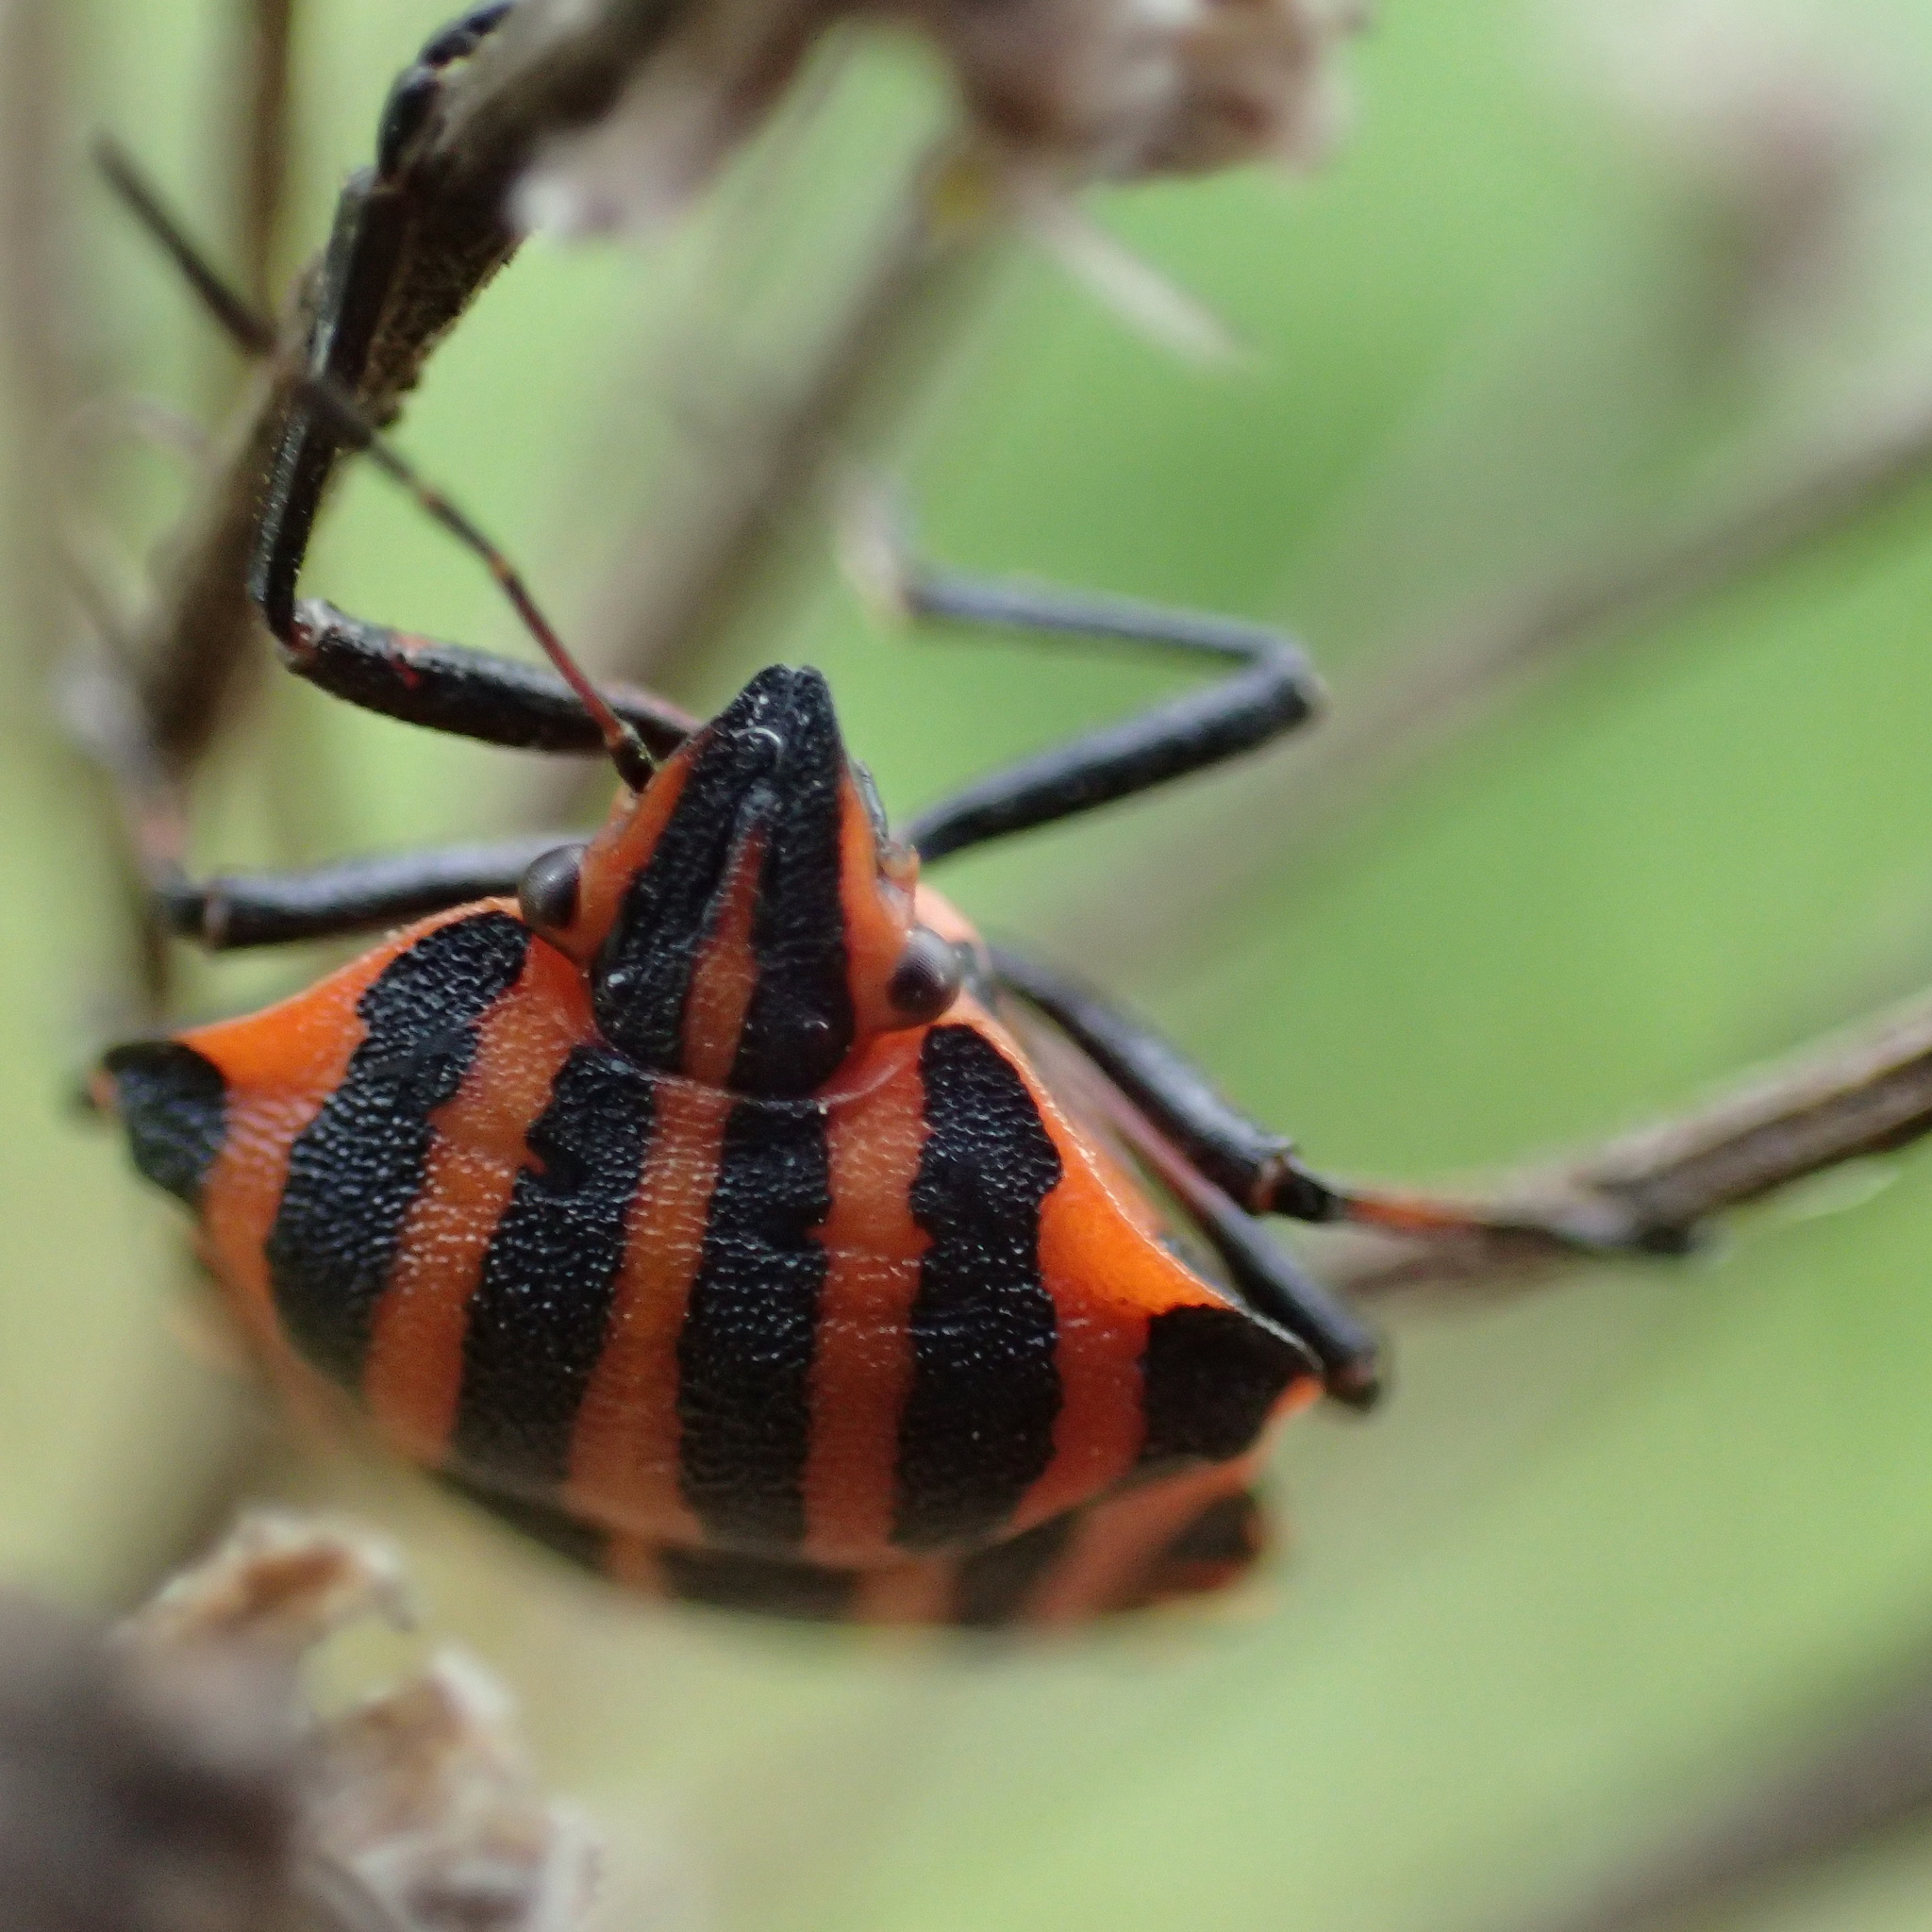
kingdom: Animalia
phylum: Arthropoda
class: Insecta
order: Hemiptera
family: Pentatomidae
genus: Graphosoma
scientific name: Graphosoma italicum
